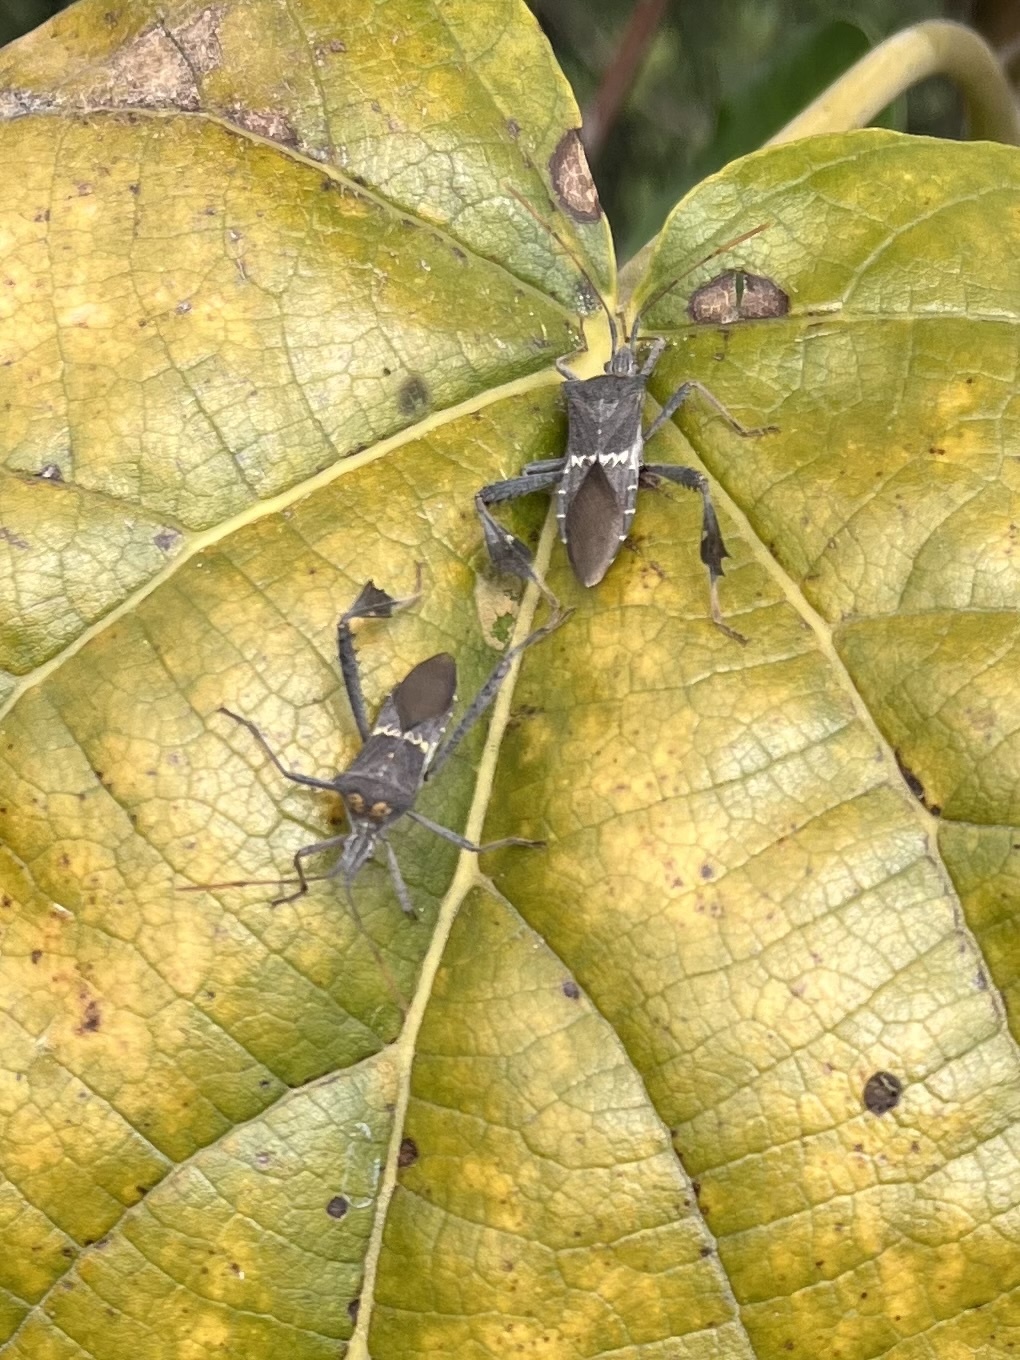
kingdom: Animalia
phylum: Arthropoda
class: Insecta
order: Hemiptera
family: Coreidae
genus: Leptoglossus
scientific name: Leptoglossus zonatus
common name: Large-legged bug
